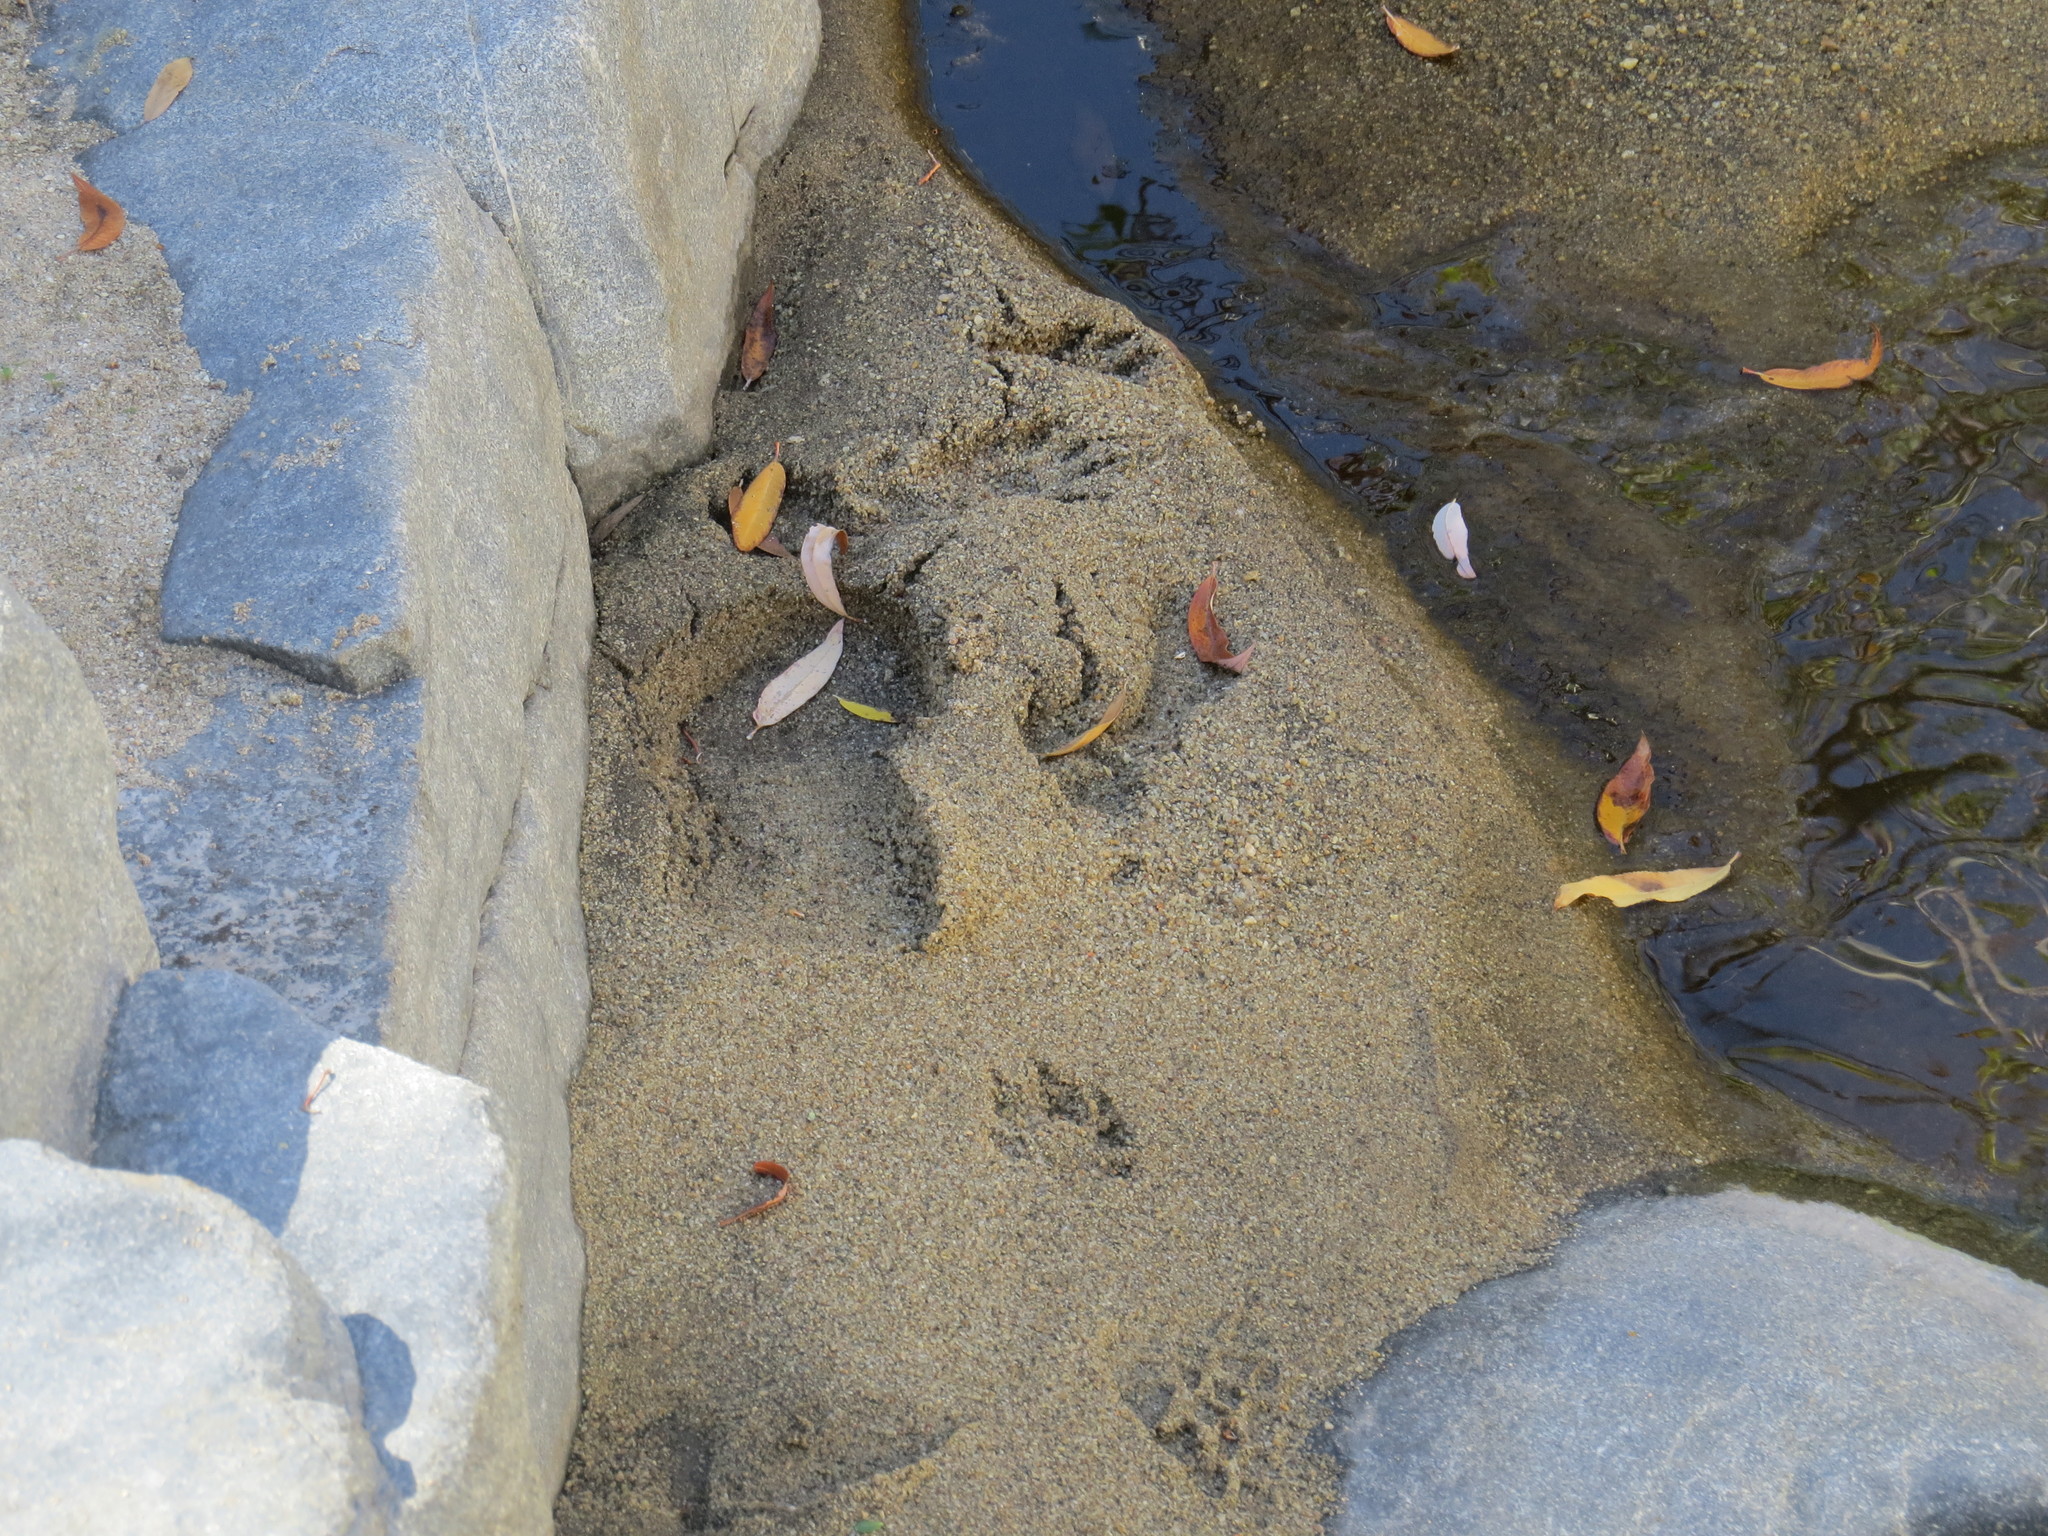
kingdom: Animalia
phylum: Chordata
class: Mammalia
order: Carnivora
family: Procyonidae
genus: Procyon
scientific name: Procyon lotor
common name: Raccoon
